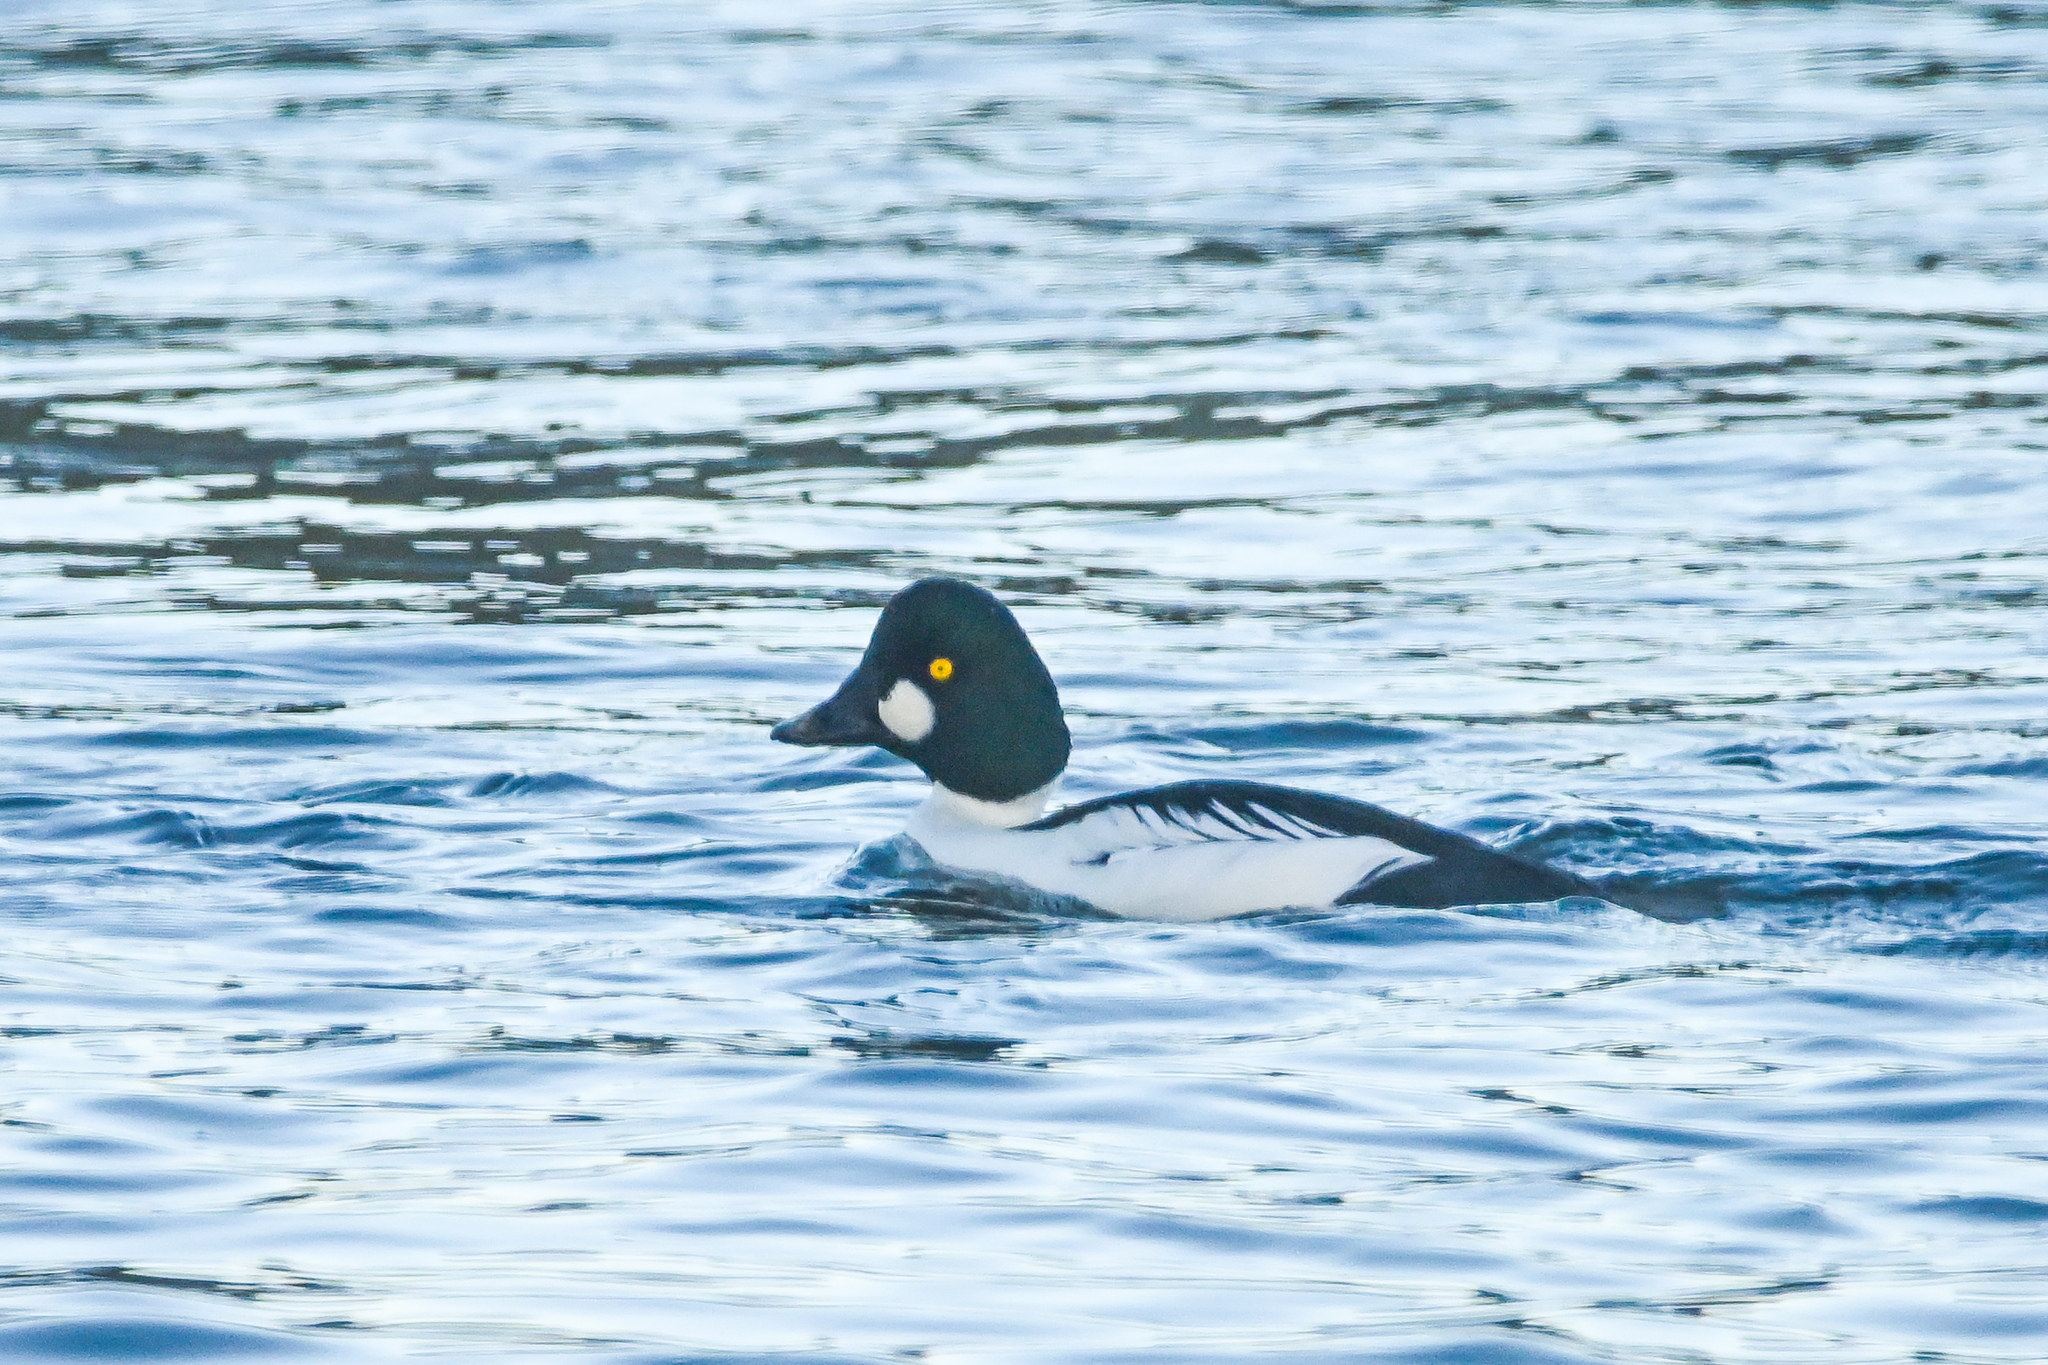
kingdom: Animalia
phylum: Chordata
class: Aves
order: Anseriformes
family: Anatidae
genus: Bucephala
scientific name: Bucephala clangula
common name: Common goldeneye
